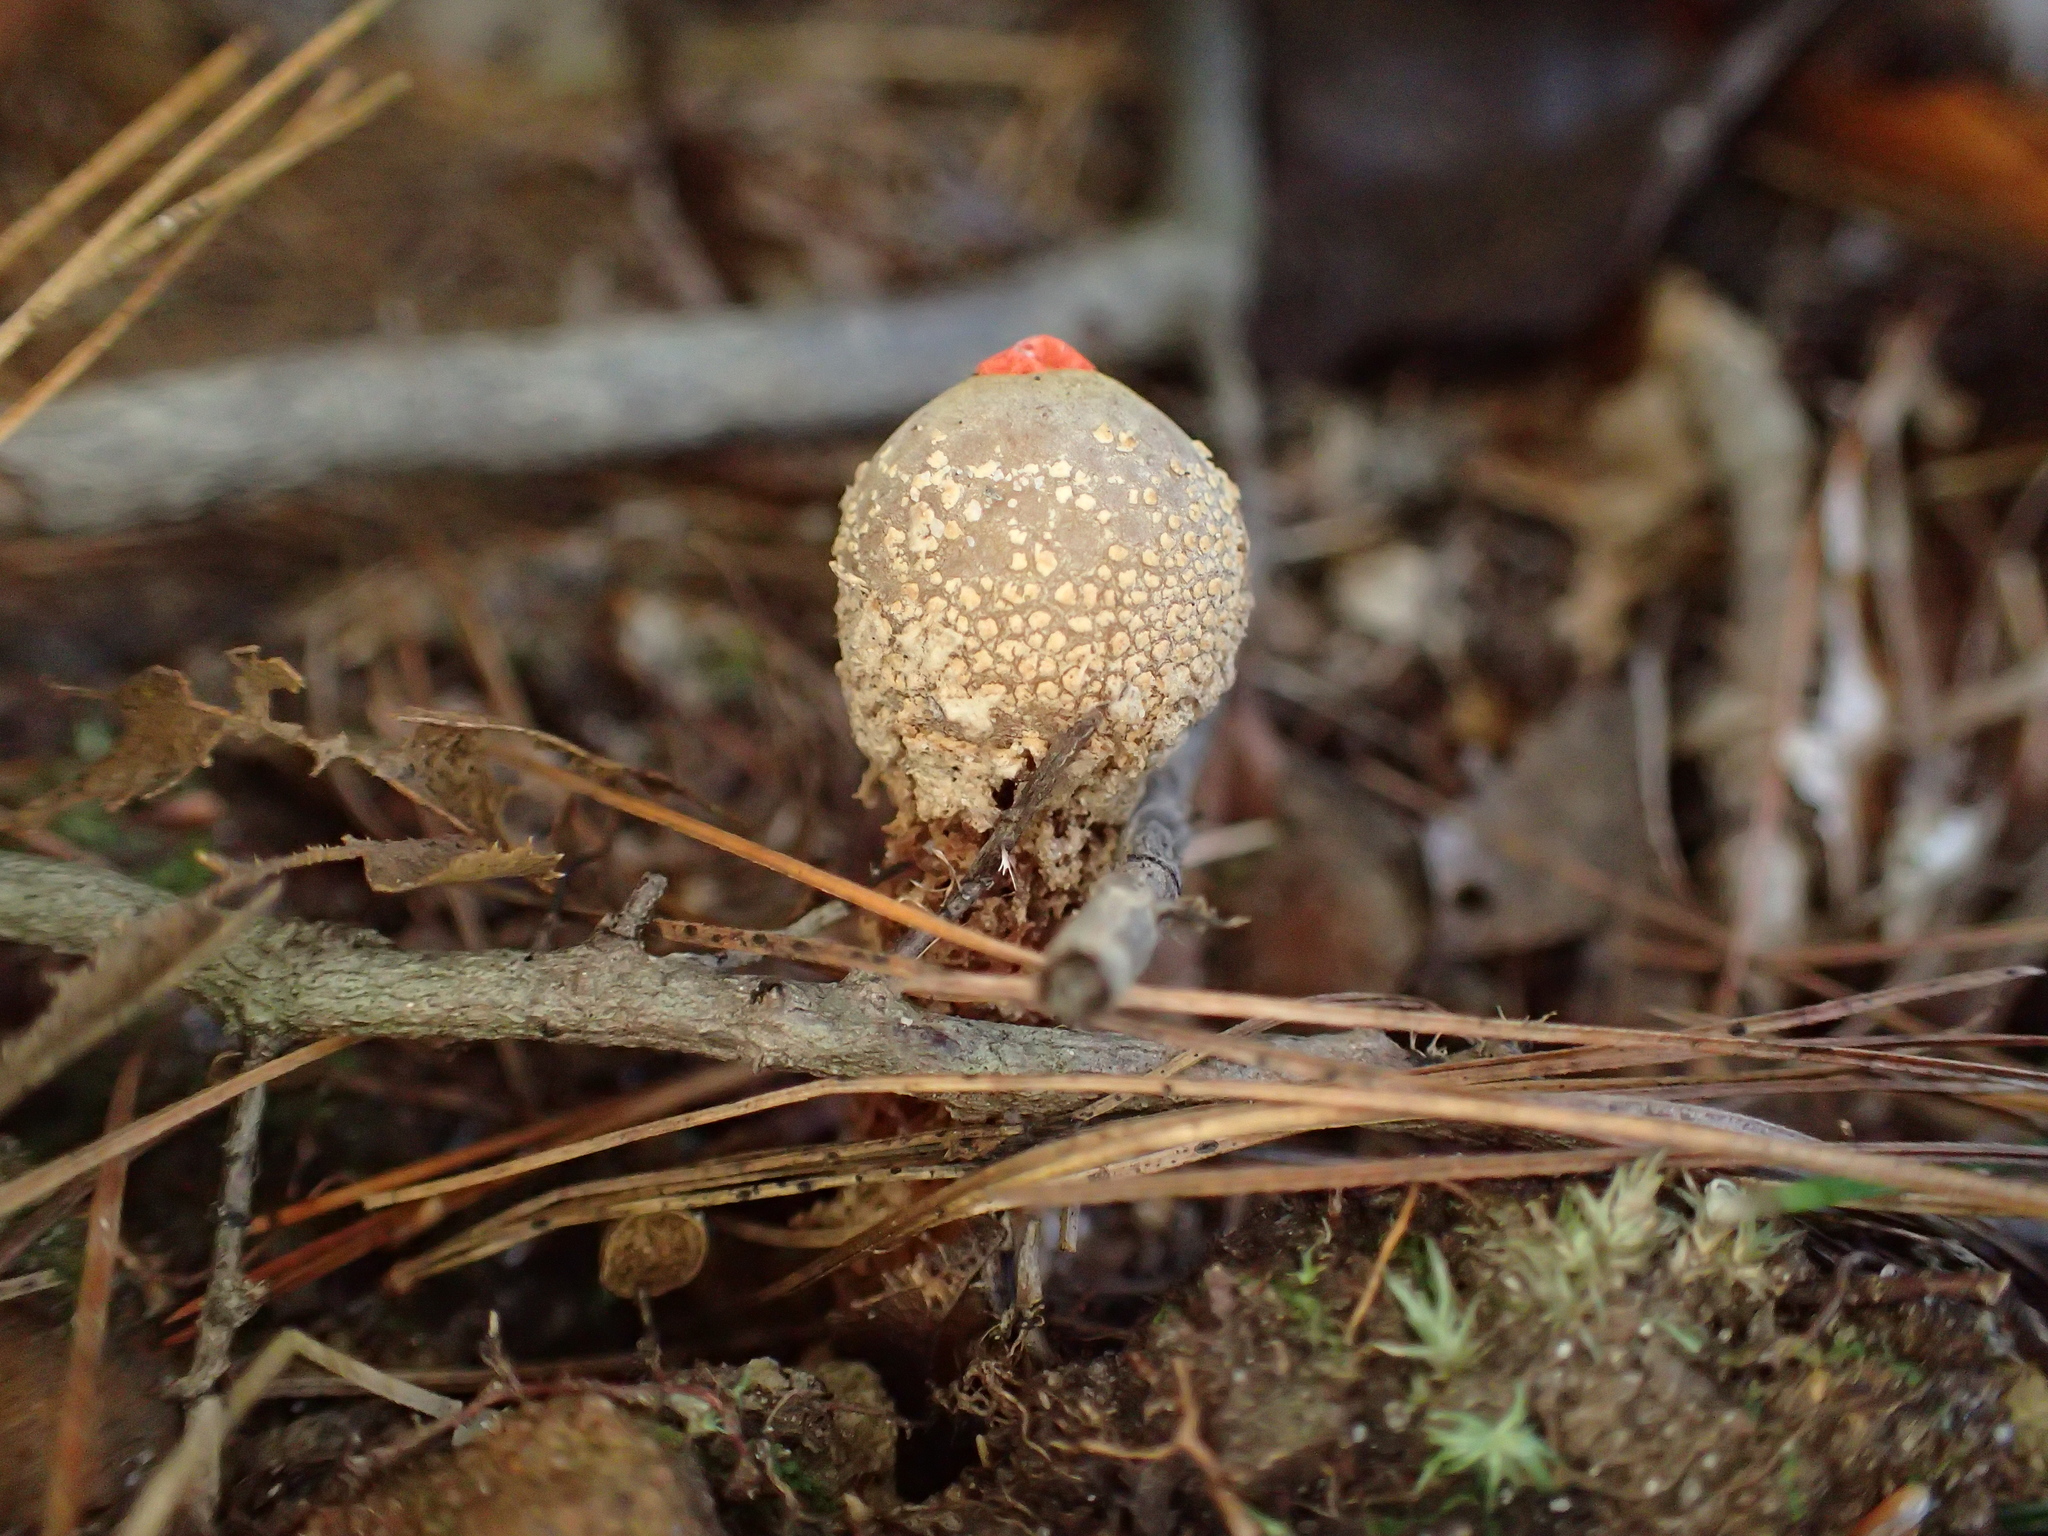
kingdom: Fungi
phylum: Basidiomycota
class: Agaricomycetes
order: Boletales
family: Calostomataceae
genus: Calostoma
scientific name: Calostoma ravenelii
